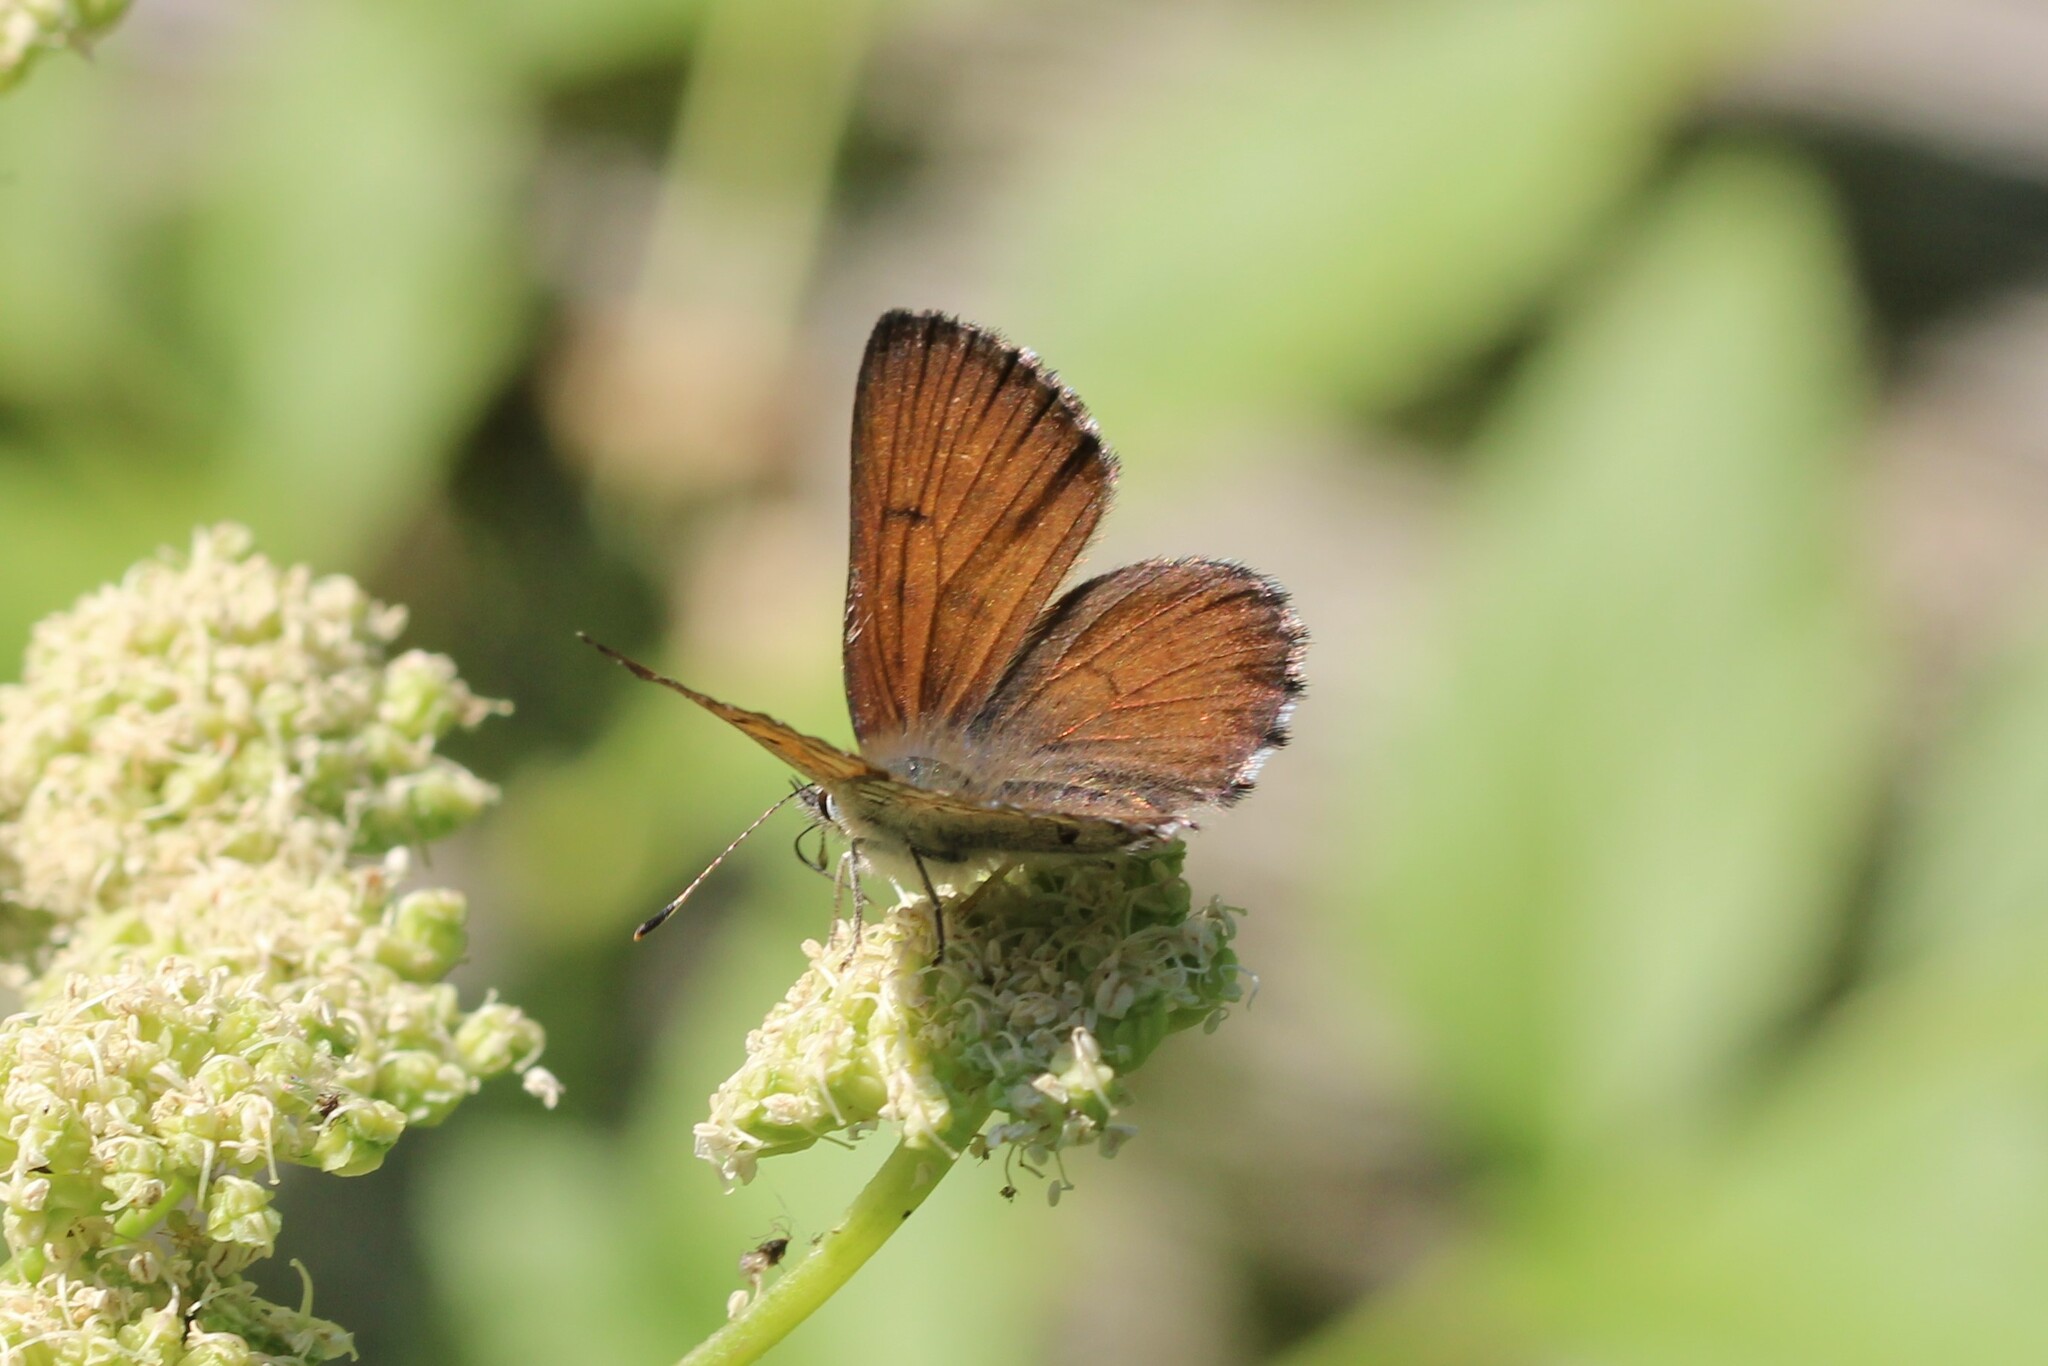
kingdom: Animalia
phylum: Arthropoda
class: Insecta
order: Lepidoptera
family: Lycaenidae
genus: Tharsalea
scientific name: Tharsalea mariposa
